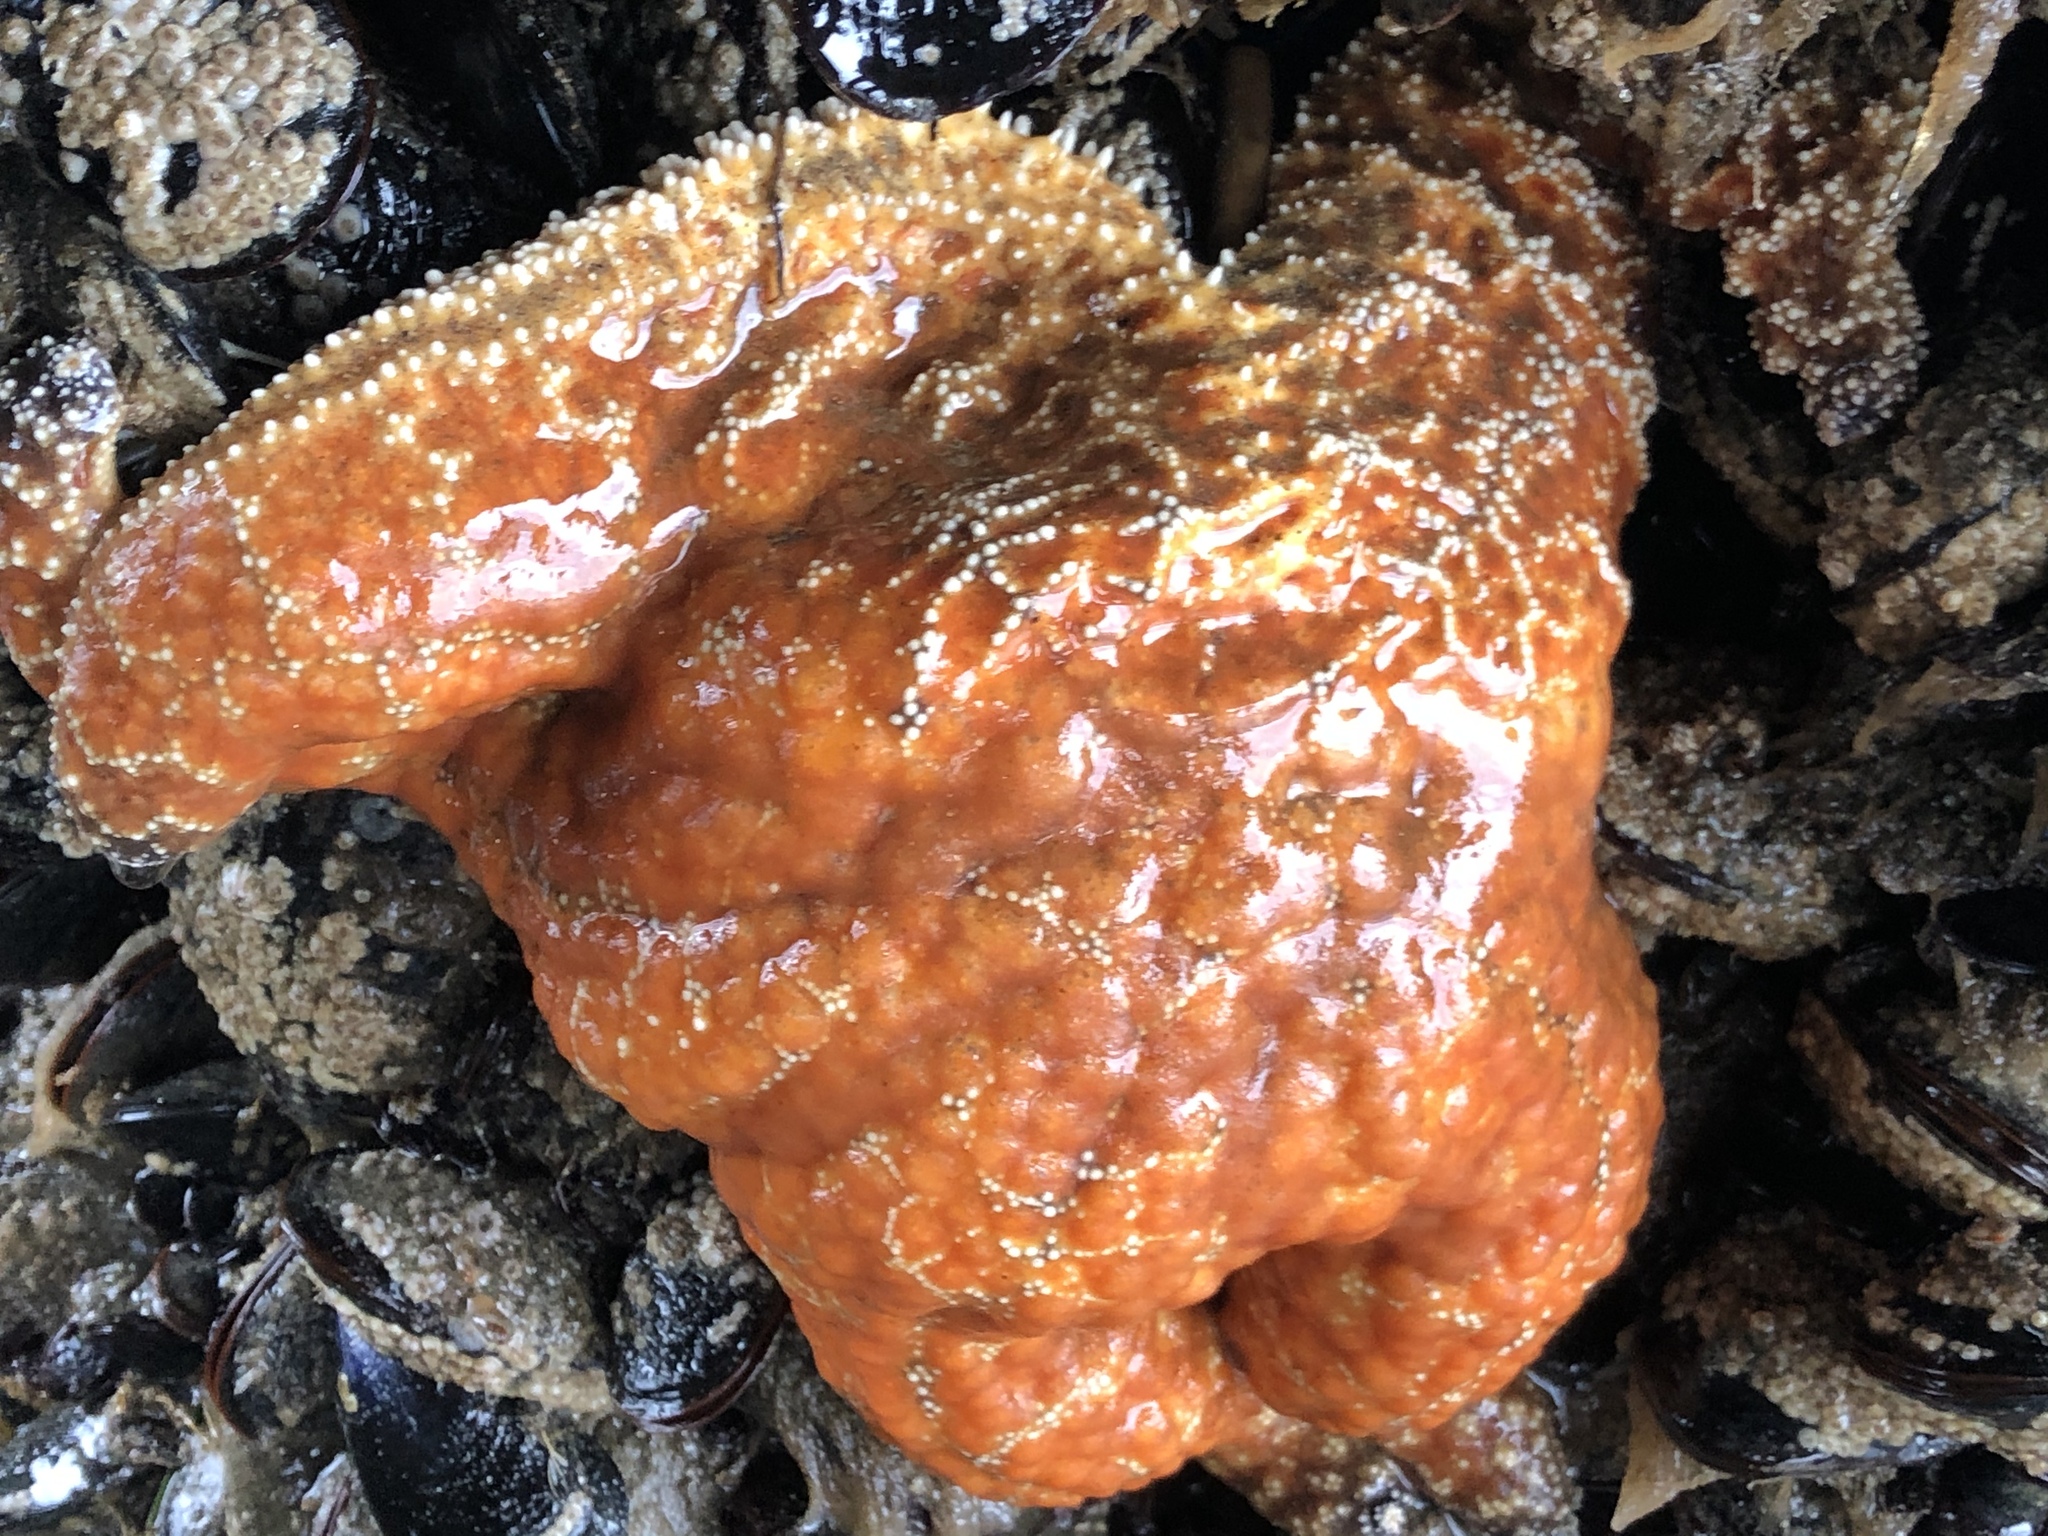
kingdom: Animalia
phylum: Echinodermata
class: Asteroidea
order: Forcipulatida
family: Asteriidae
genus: Pisaster
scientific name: Pisaster ochraceus
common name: Ochre stars
